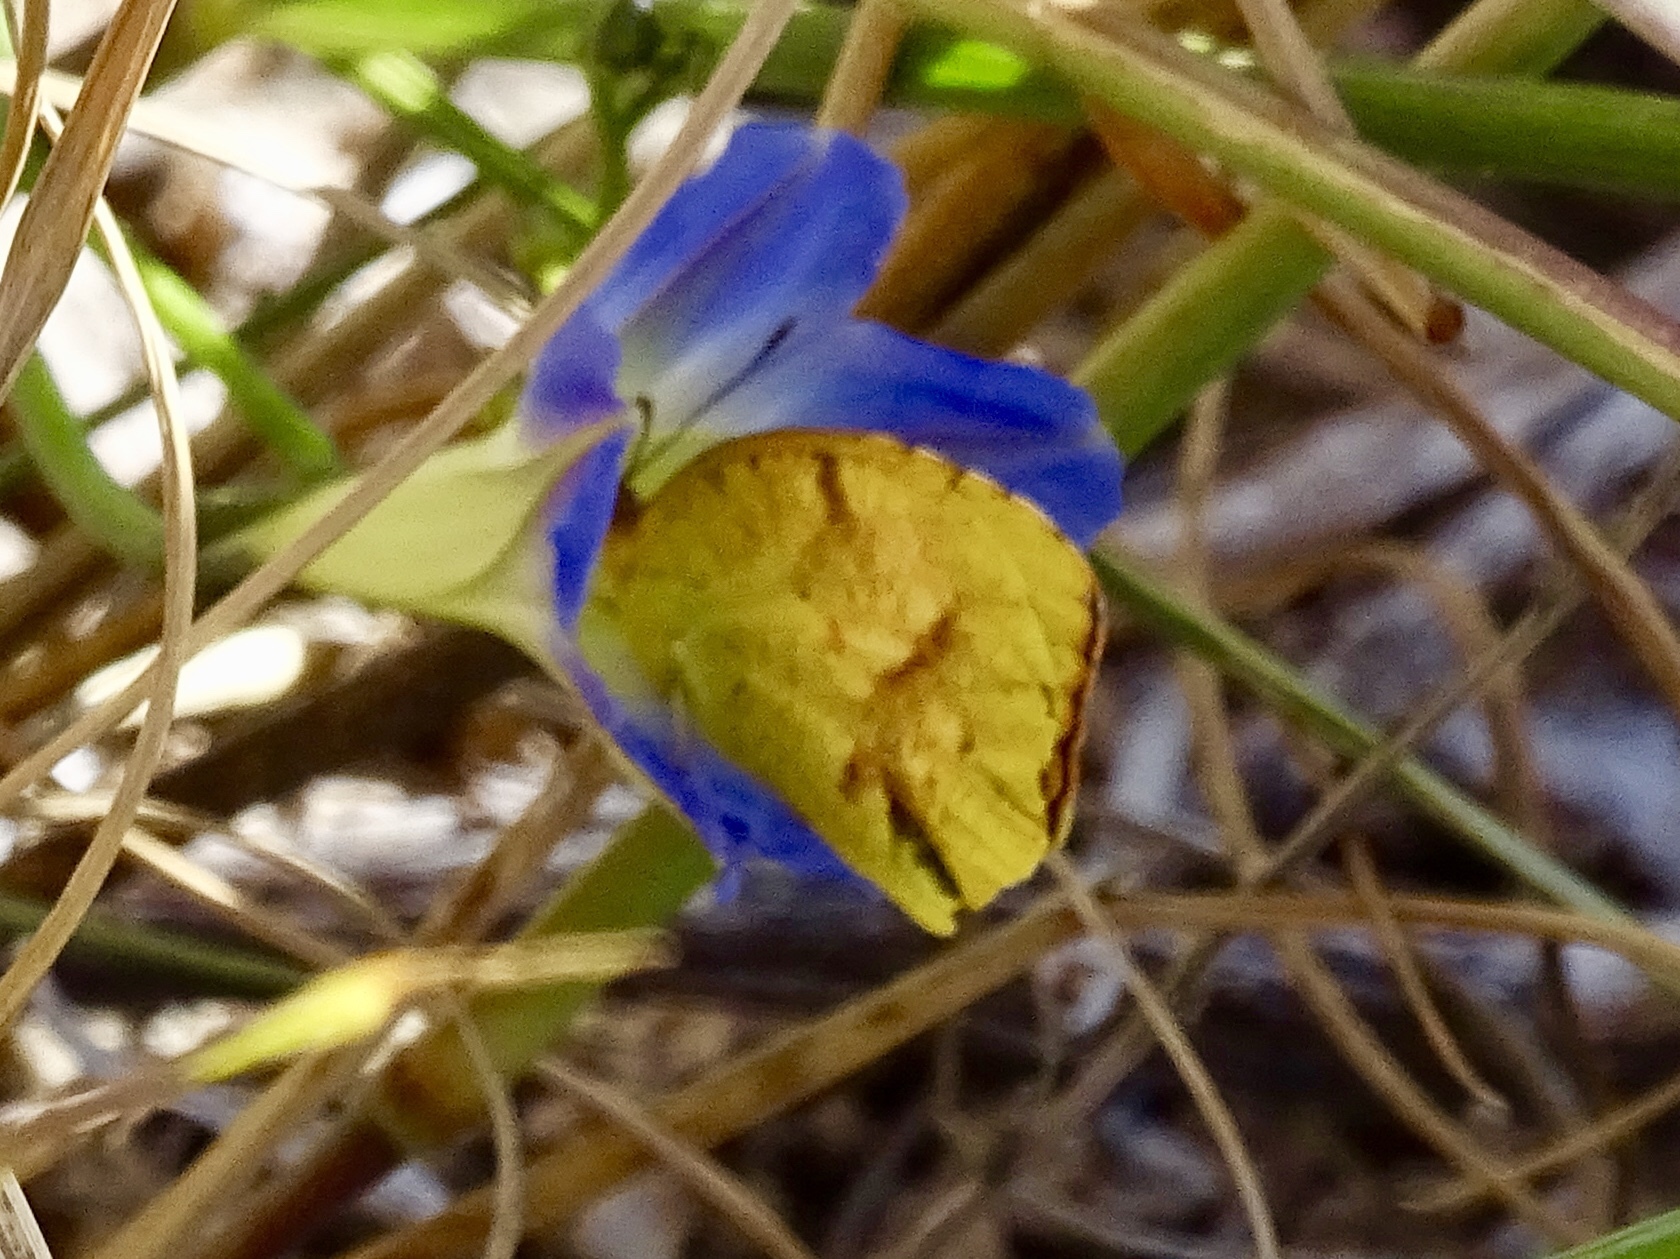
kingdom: Animalia
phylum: Arthropoda
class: Insecta
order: Lepidoptera
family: Pieridae
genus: Abaeis
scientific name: Abaeis nicippe
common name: Sleepy orange
